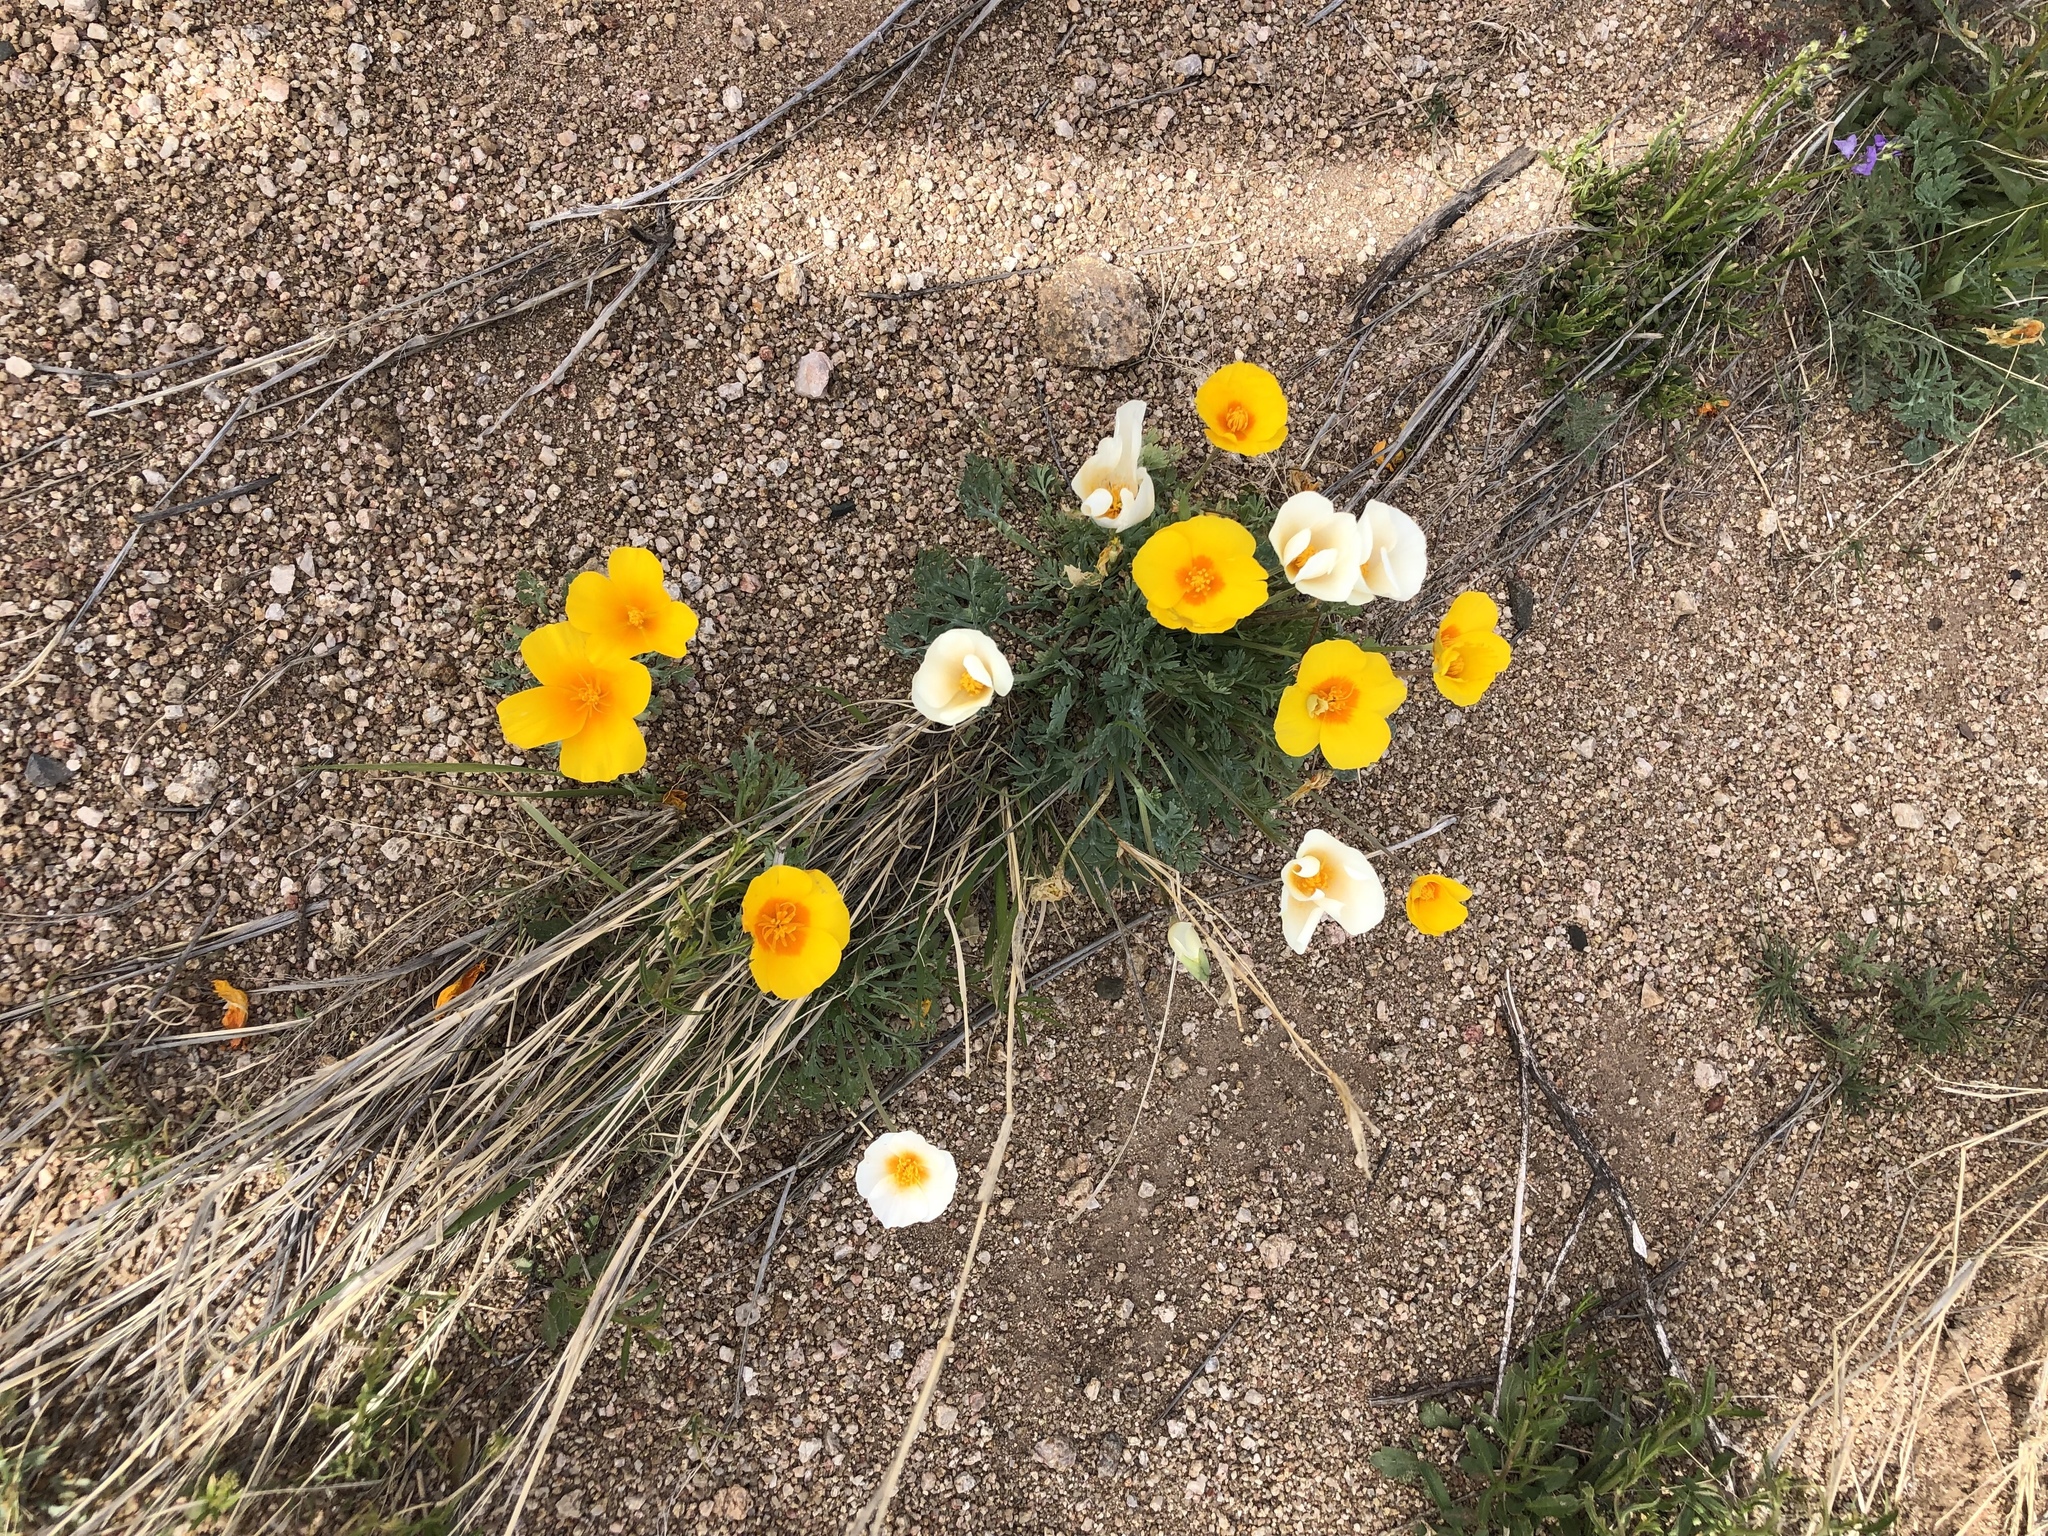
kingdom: Plantae
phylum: Tracheophyta
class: Magnoliopsida
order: Ranunculales
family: Papaveraceae
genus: Eschscholzia
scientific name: Eschscholzia californica
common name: California poppy
